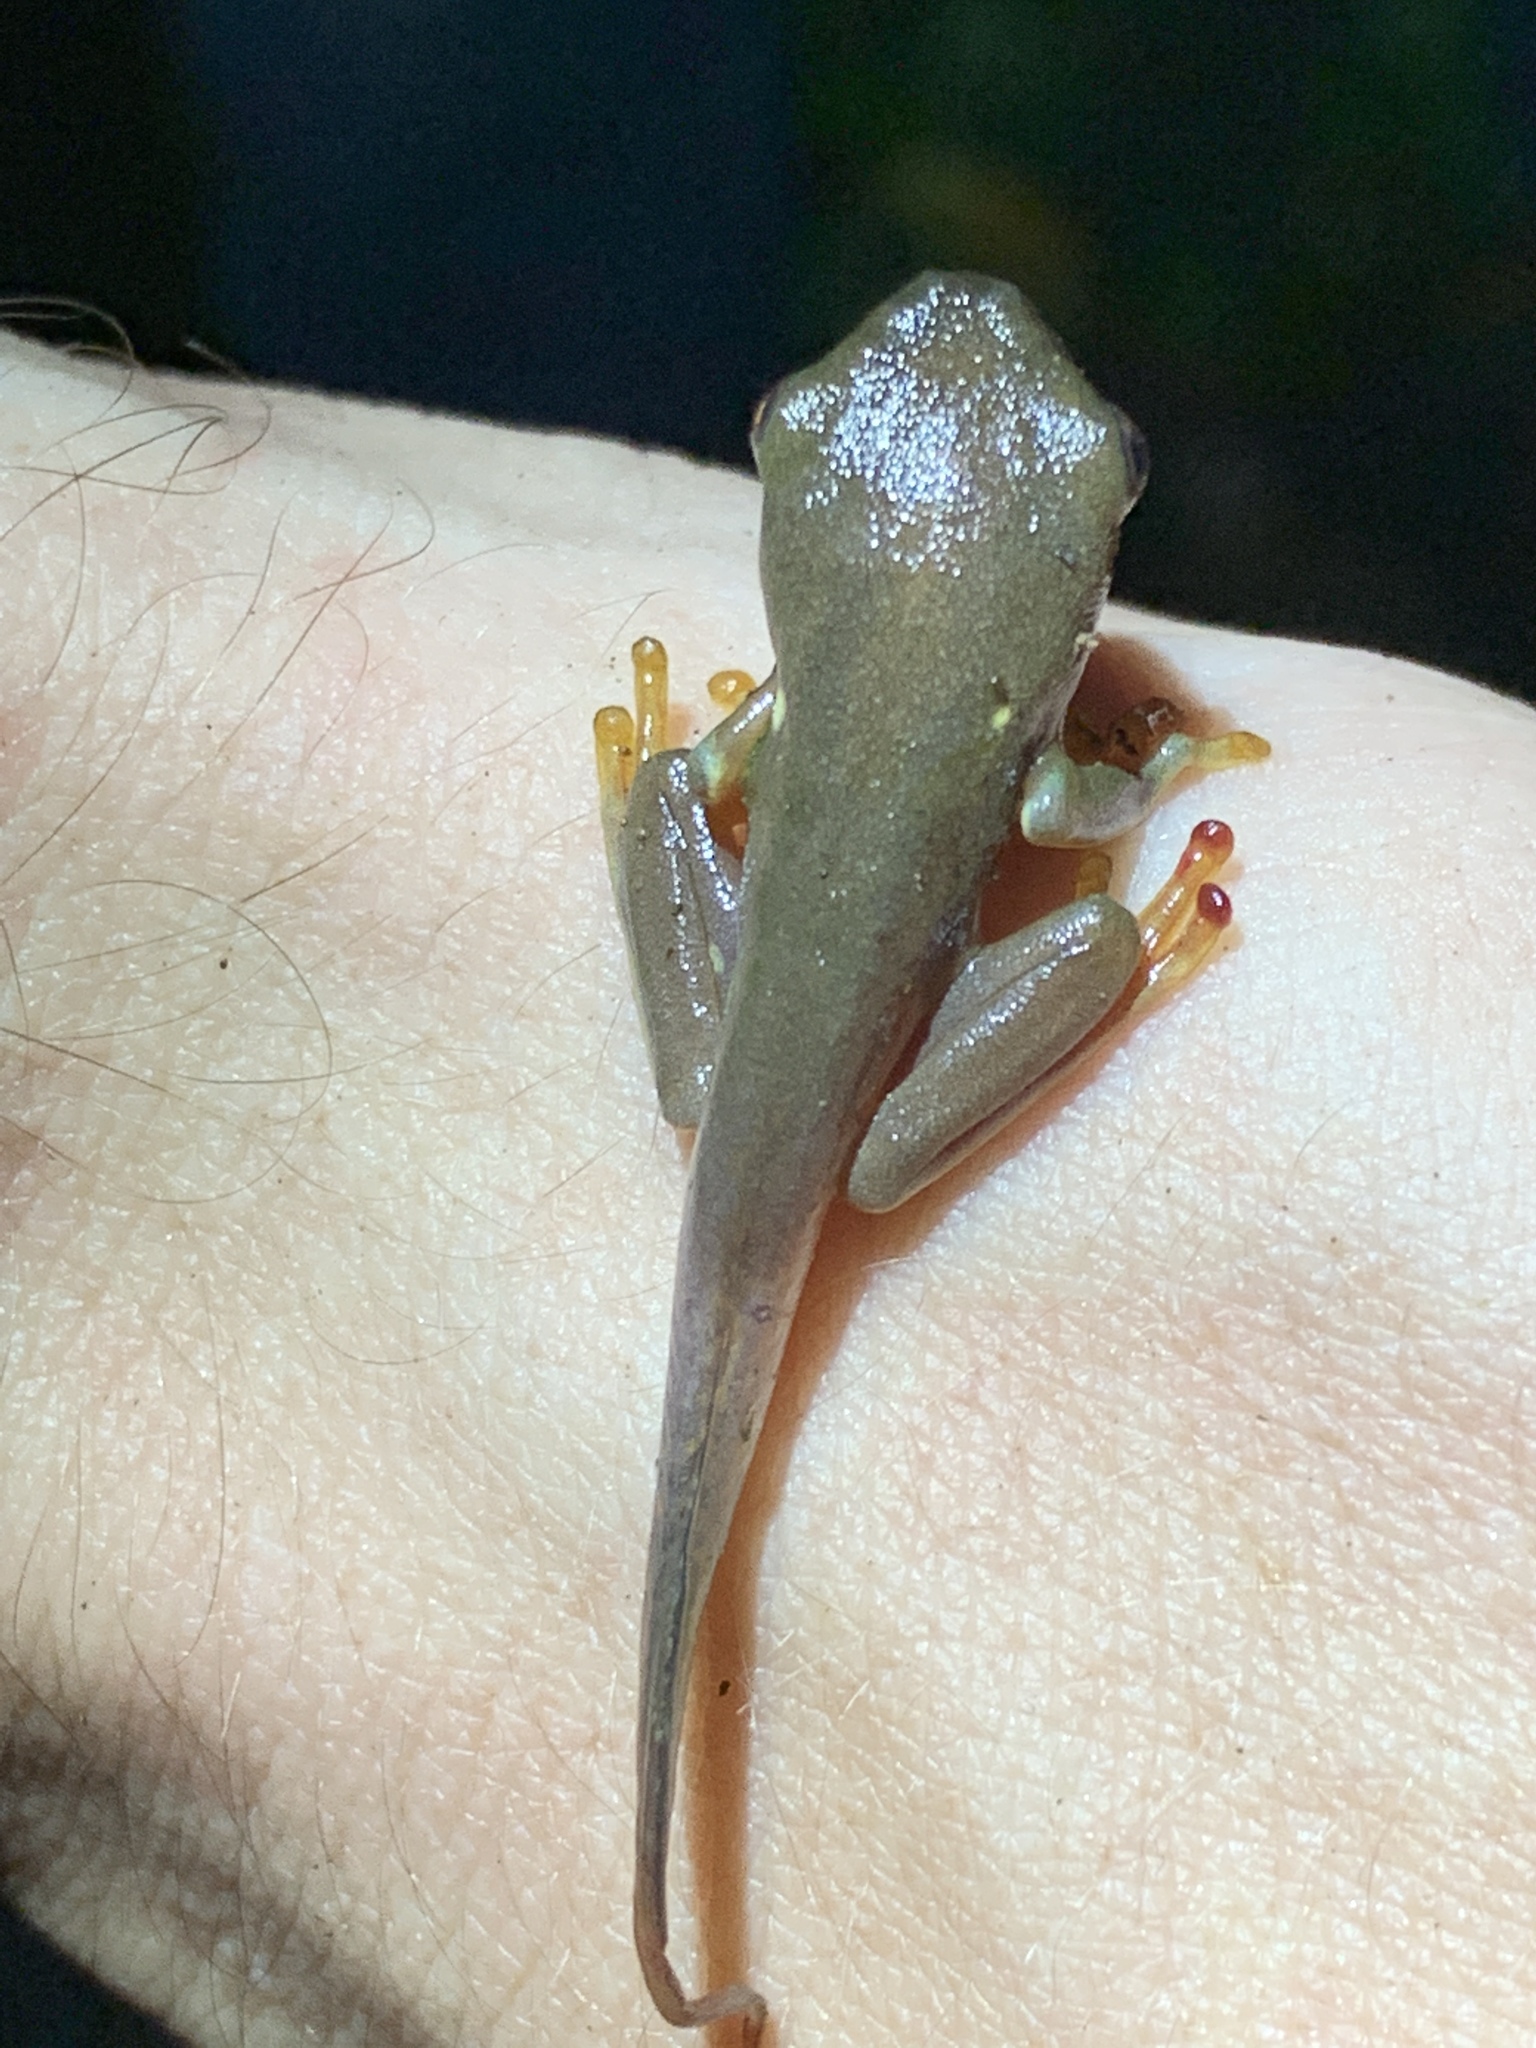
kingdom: Animalia
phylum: Chordata
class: Amphibia
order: Anura
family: Phyllomedusidae
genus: Agalychnis
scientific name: Agalychnis callidryas
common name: Red-eyed treefrog
